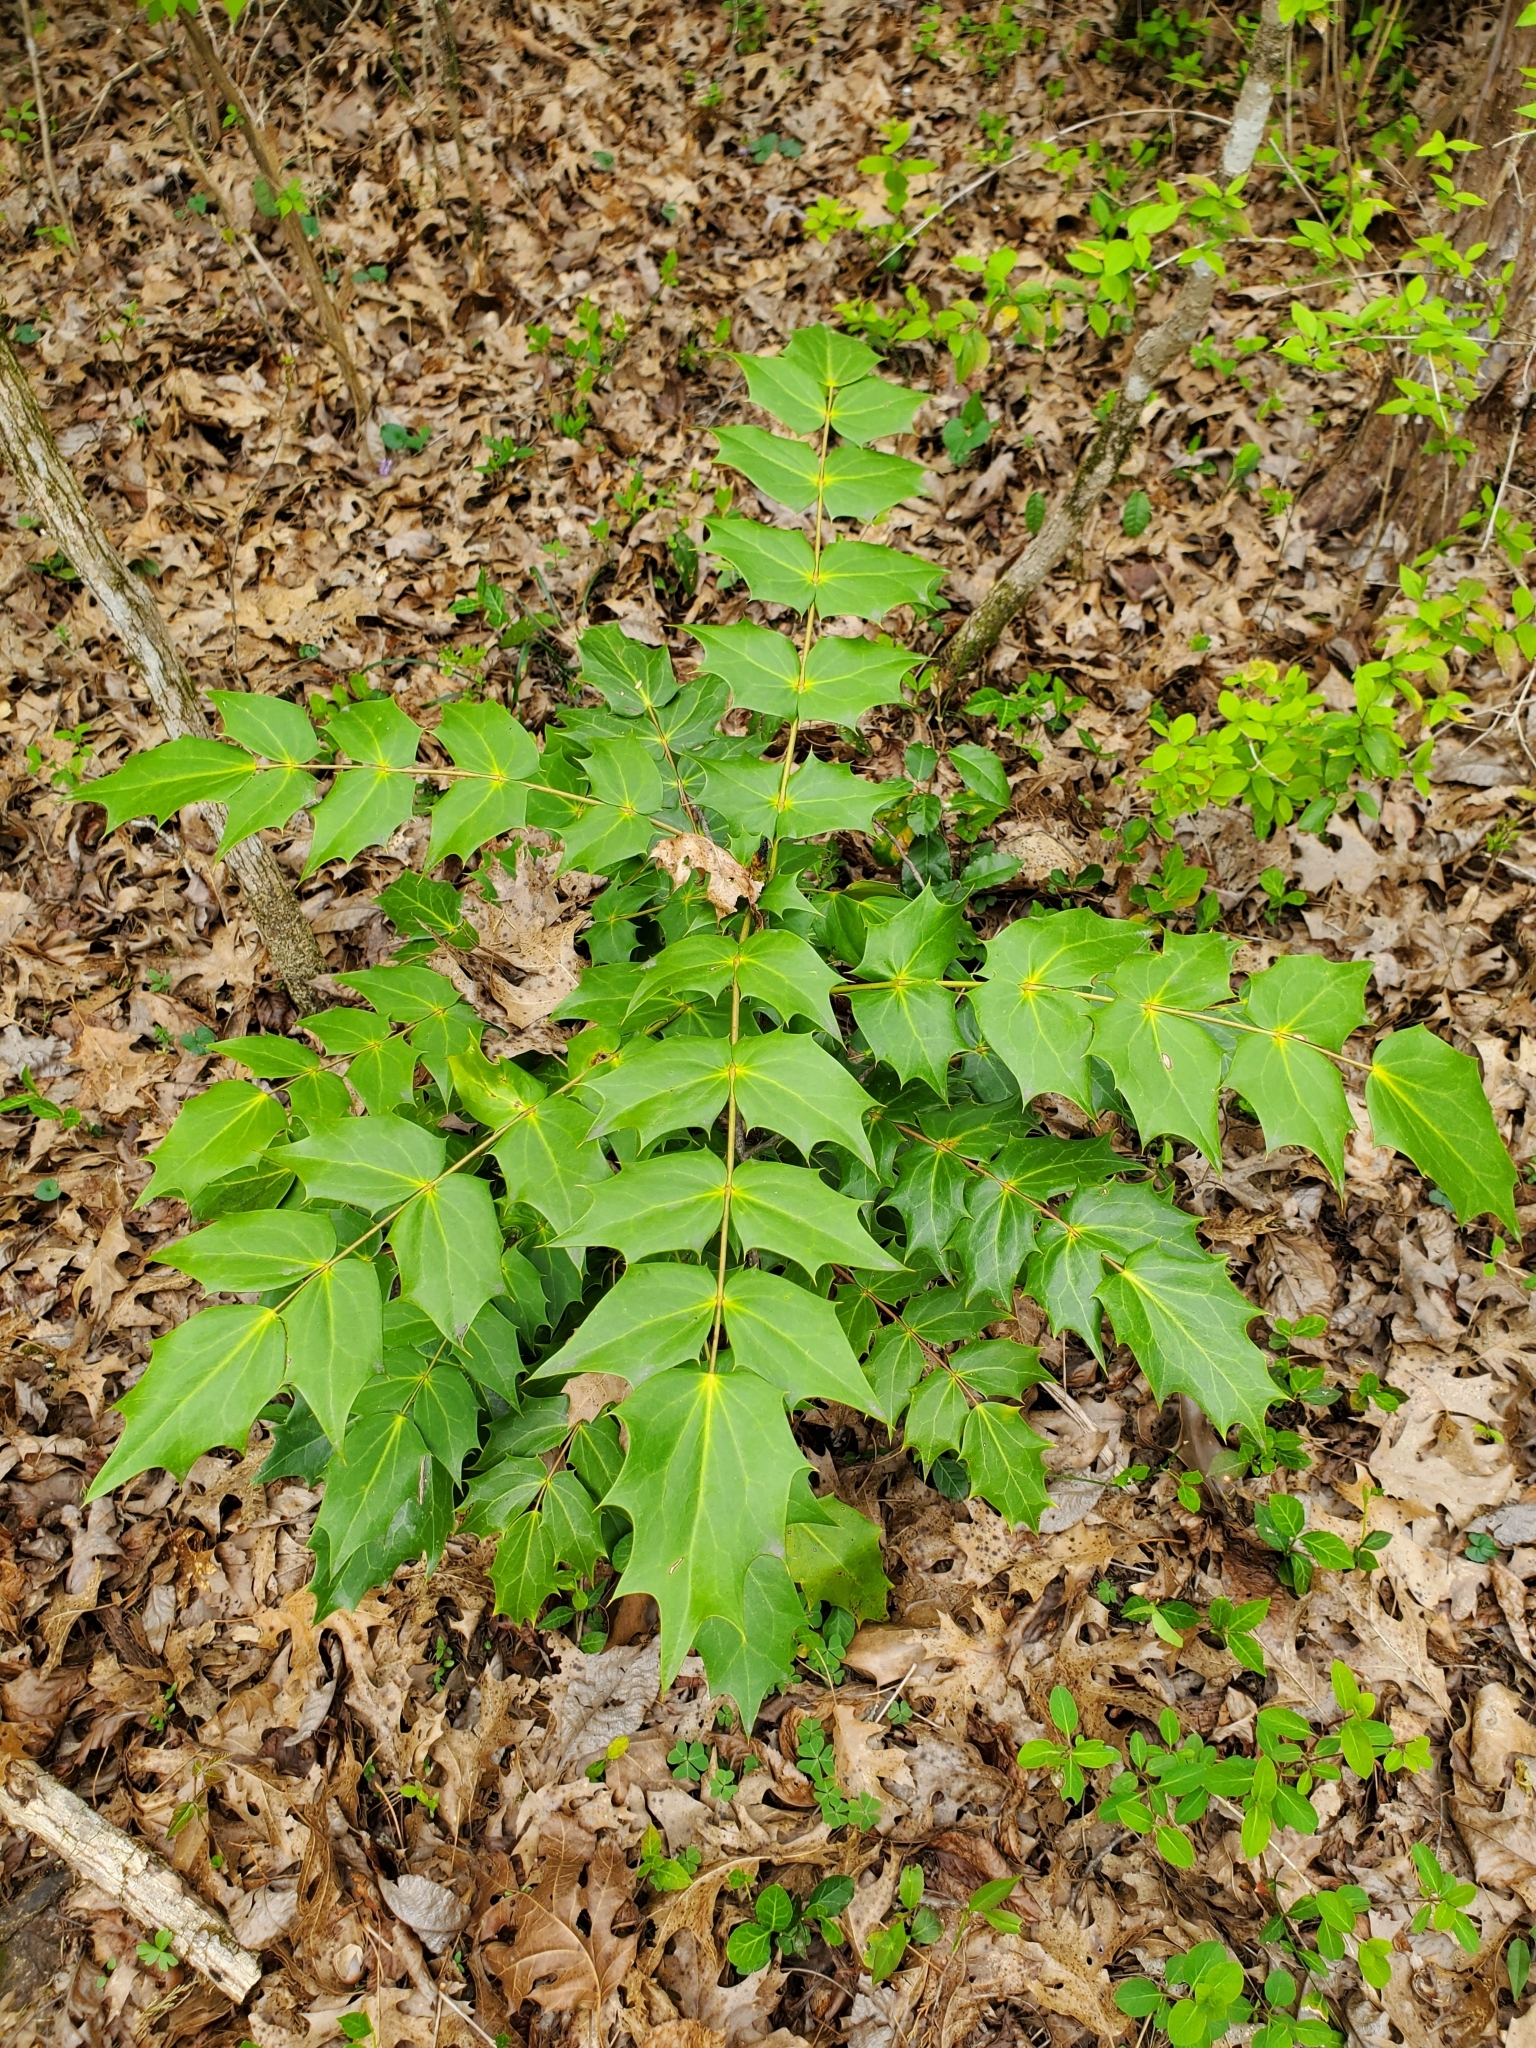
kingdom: Plantae
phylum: Tracheophyta
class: Magnoliopsida
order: Ranunculales
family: Berberidaceae
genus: Mahonia
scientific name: Mahonia bealei
